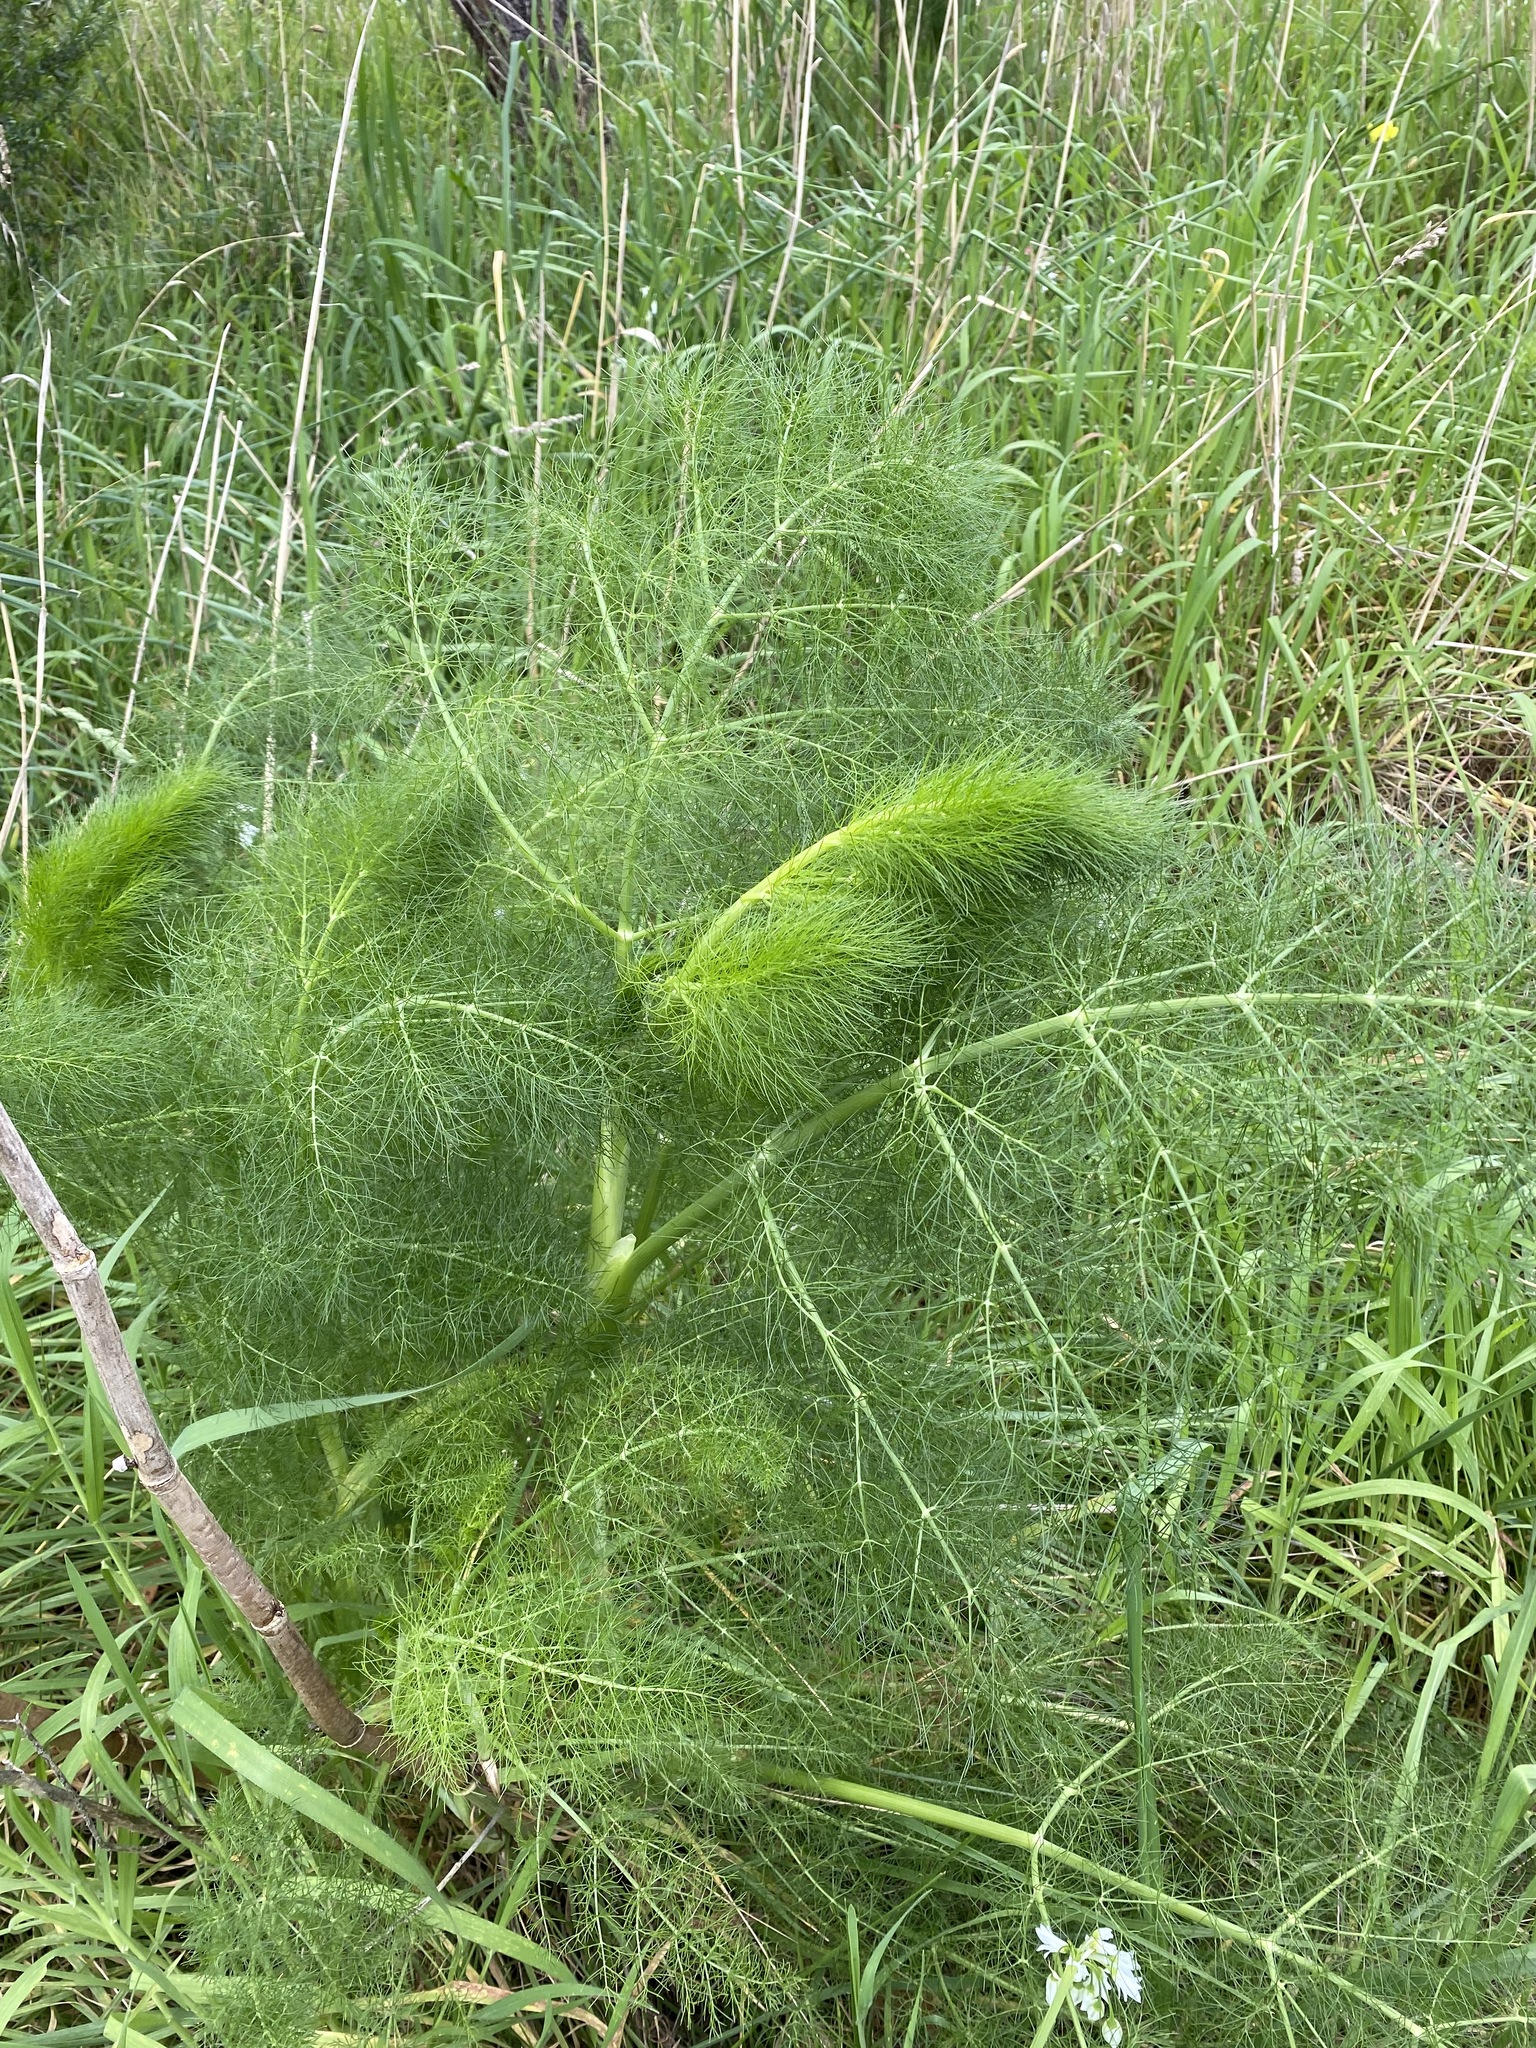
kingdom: Plantae
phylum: Tracheophyta
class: Magnoliopsida
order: Apiales
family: Apiaceae
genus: Foeniculum
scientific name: Foeniculum vulgare
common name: Fennel
